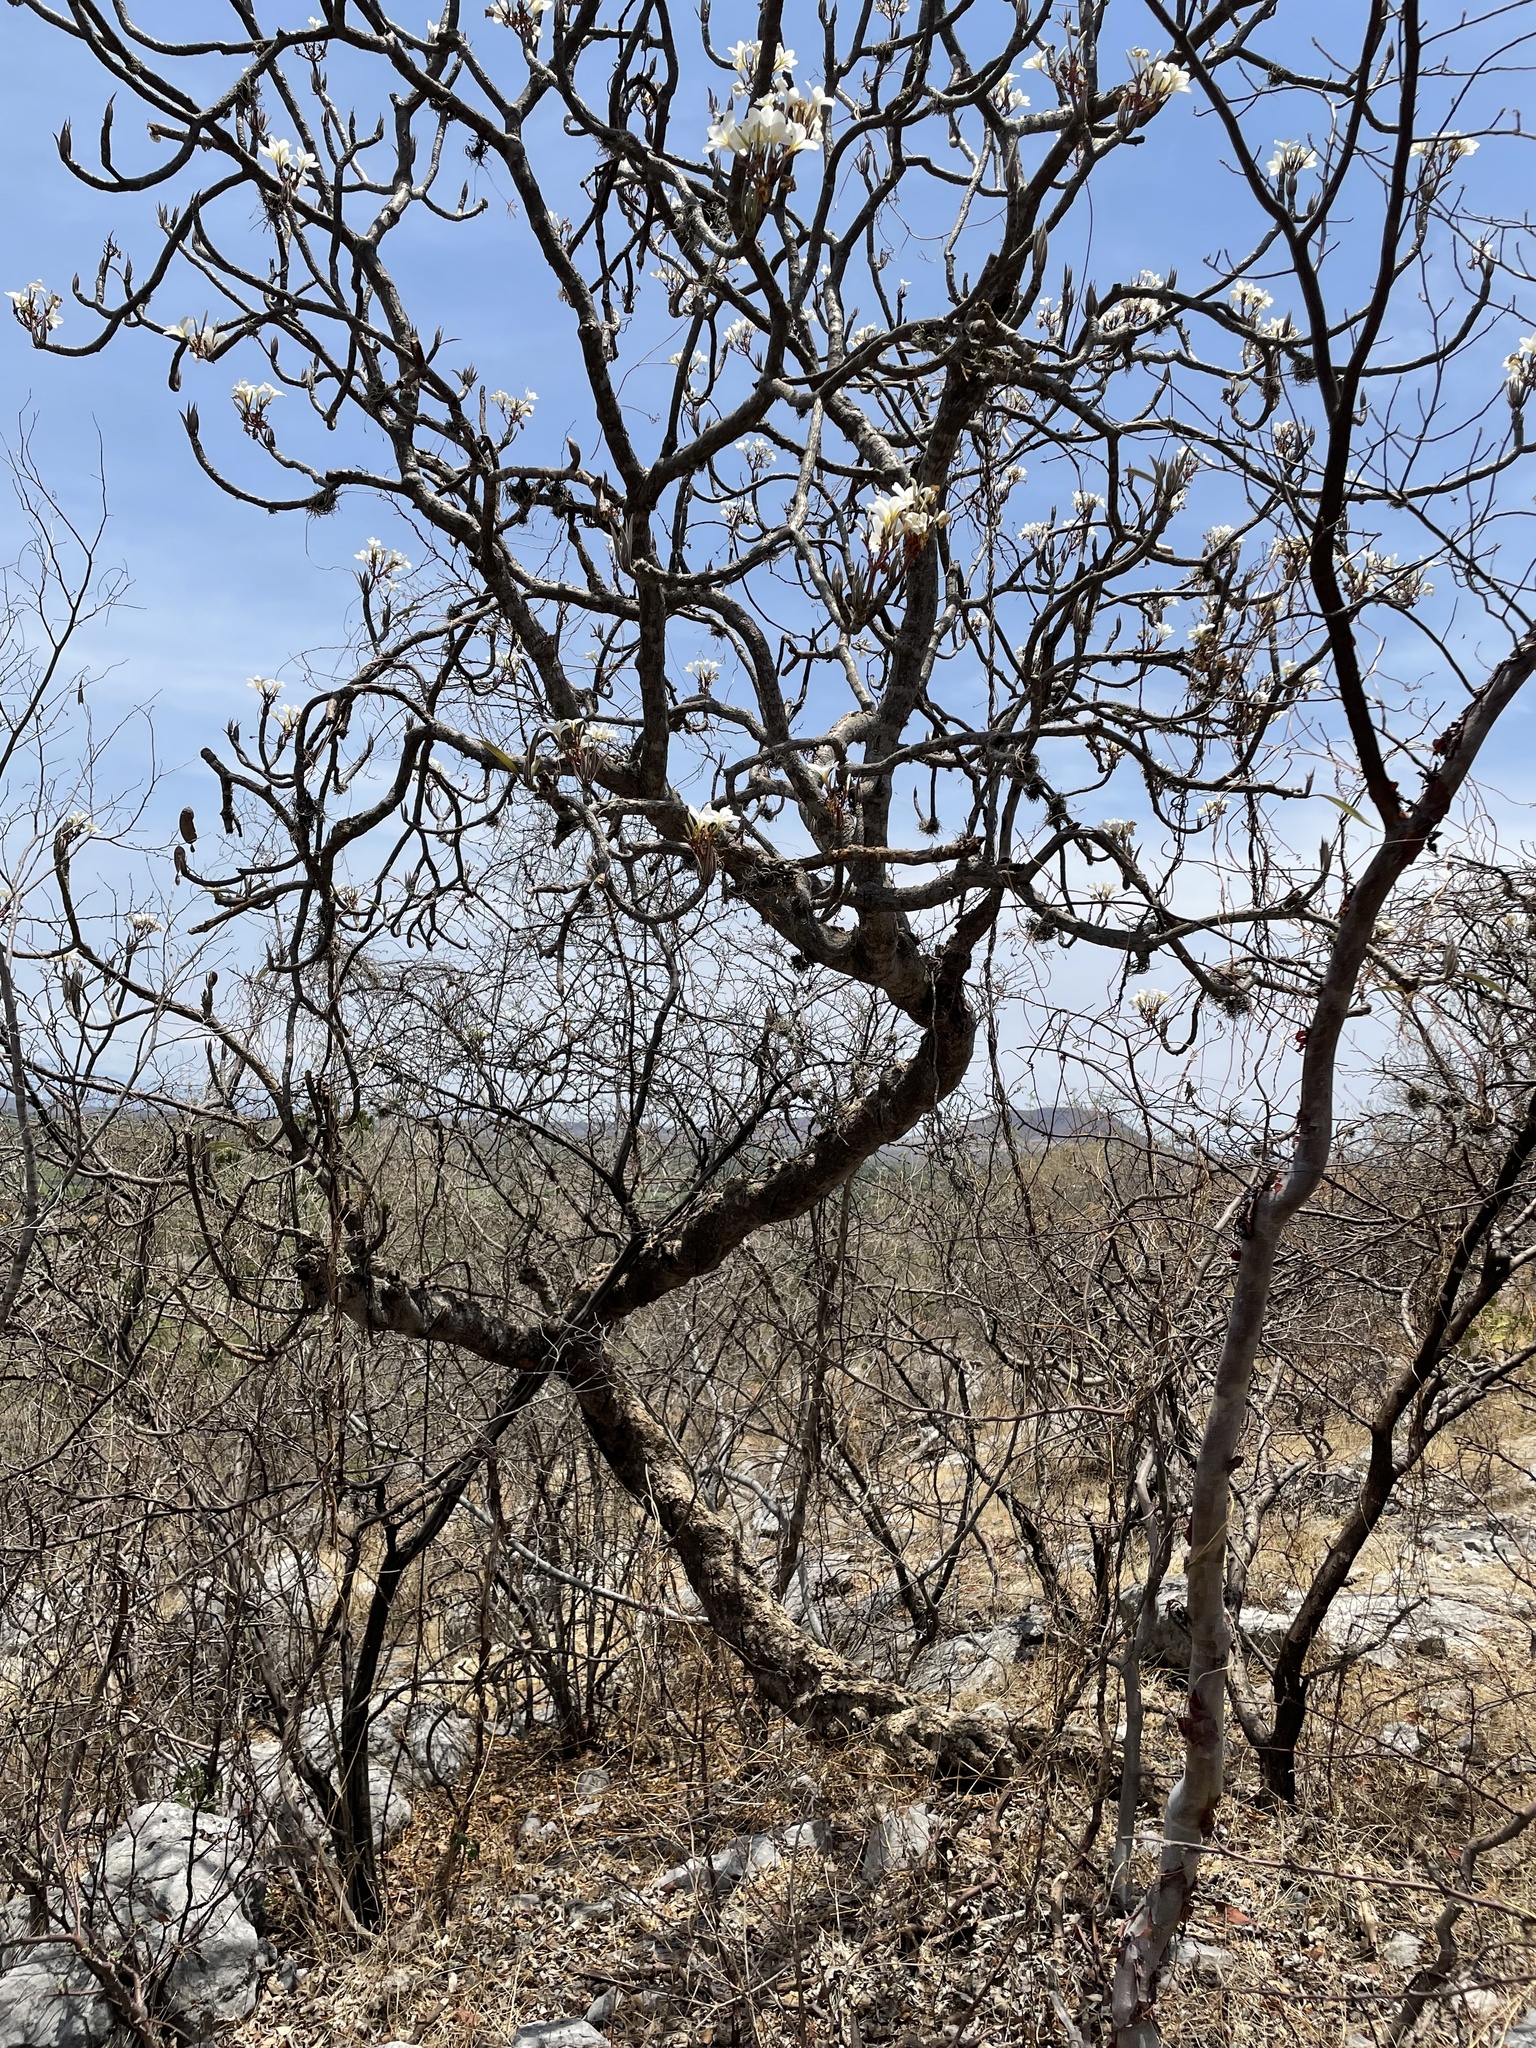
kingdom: Plantae
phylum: Tracheophyta
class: Magnoliopsida
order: Gentianales
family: Apocynaceae
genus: Plumeria
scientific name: Plumeria rubra
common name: Pagoda-tree
